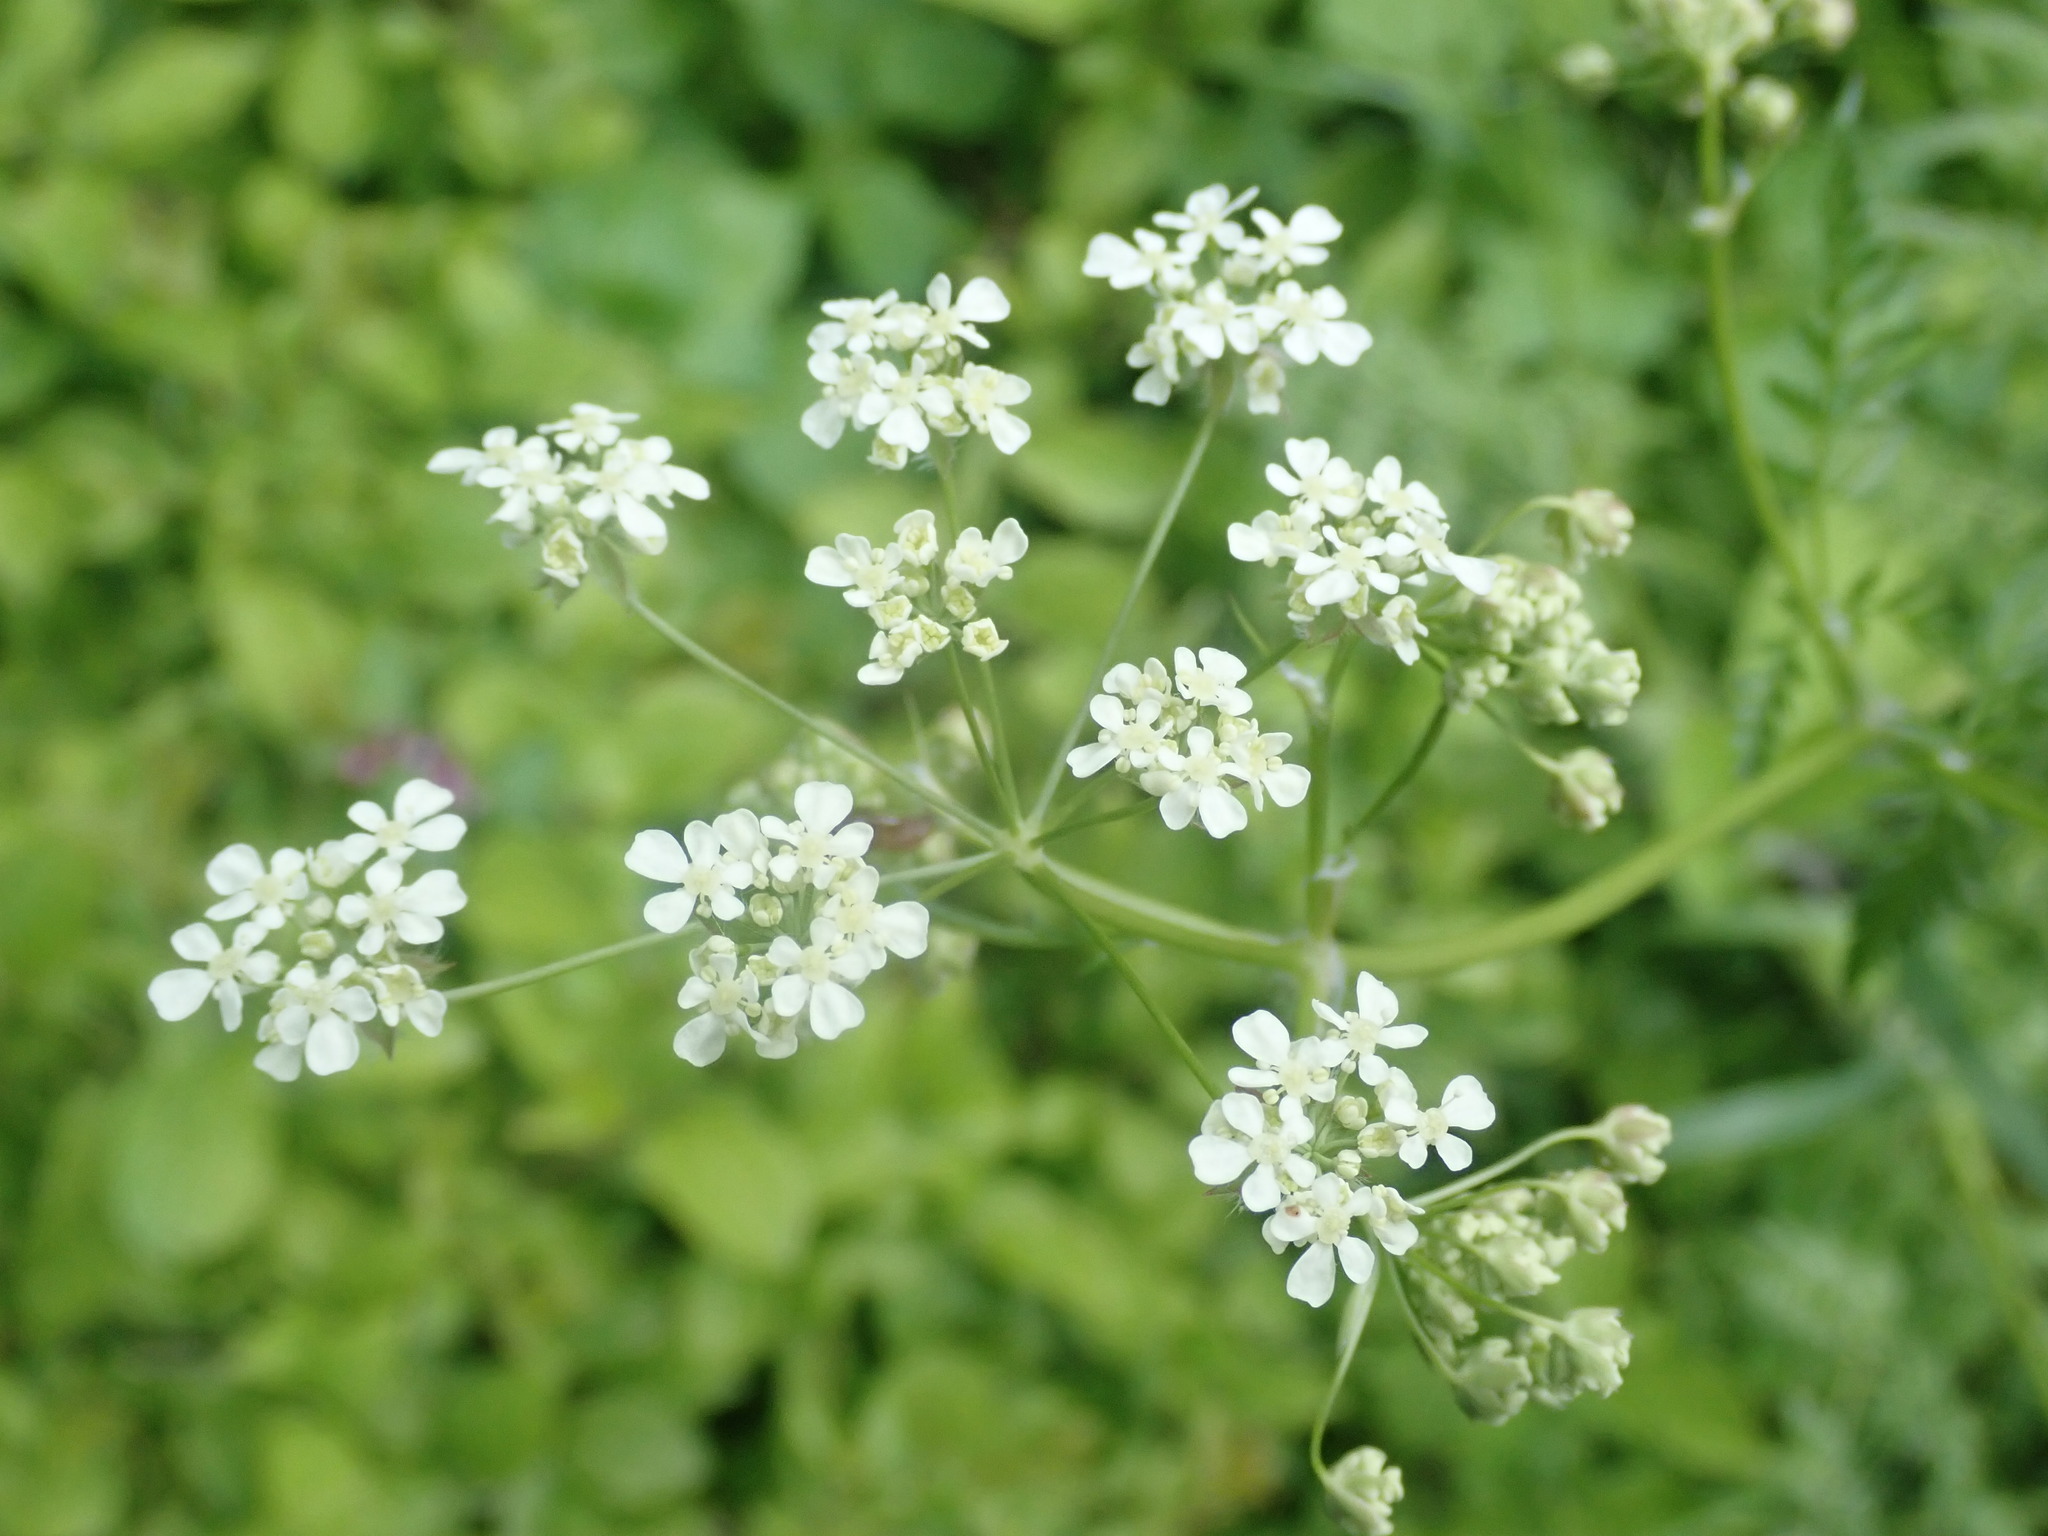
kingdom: Plantae
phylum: Tracheophyta
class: Magnoliopsida
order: Apiales
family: Apiaceae
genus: Anthriscus
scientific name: Anthriscus sylvestris
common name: Cow parsley
